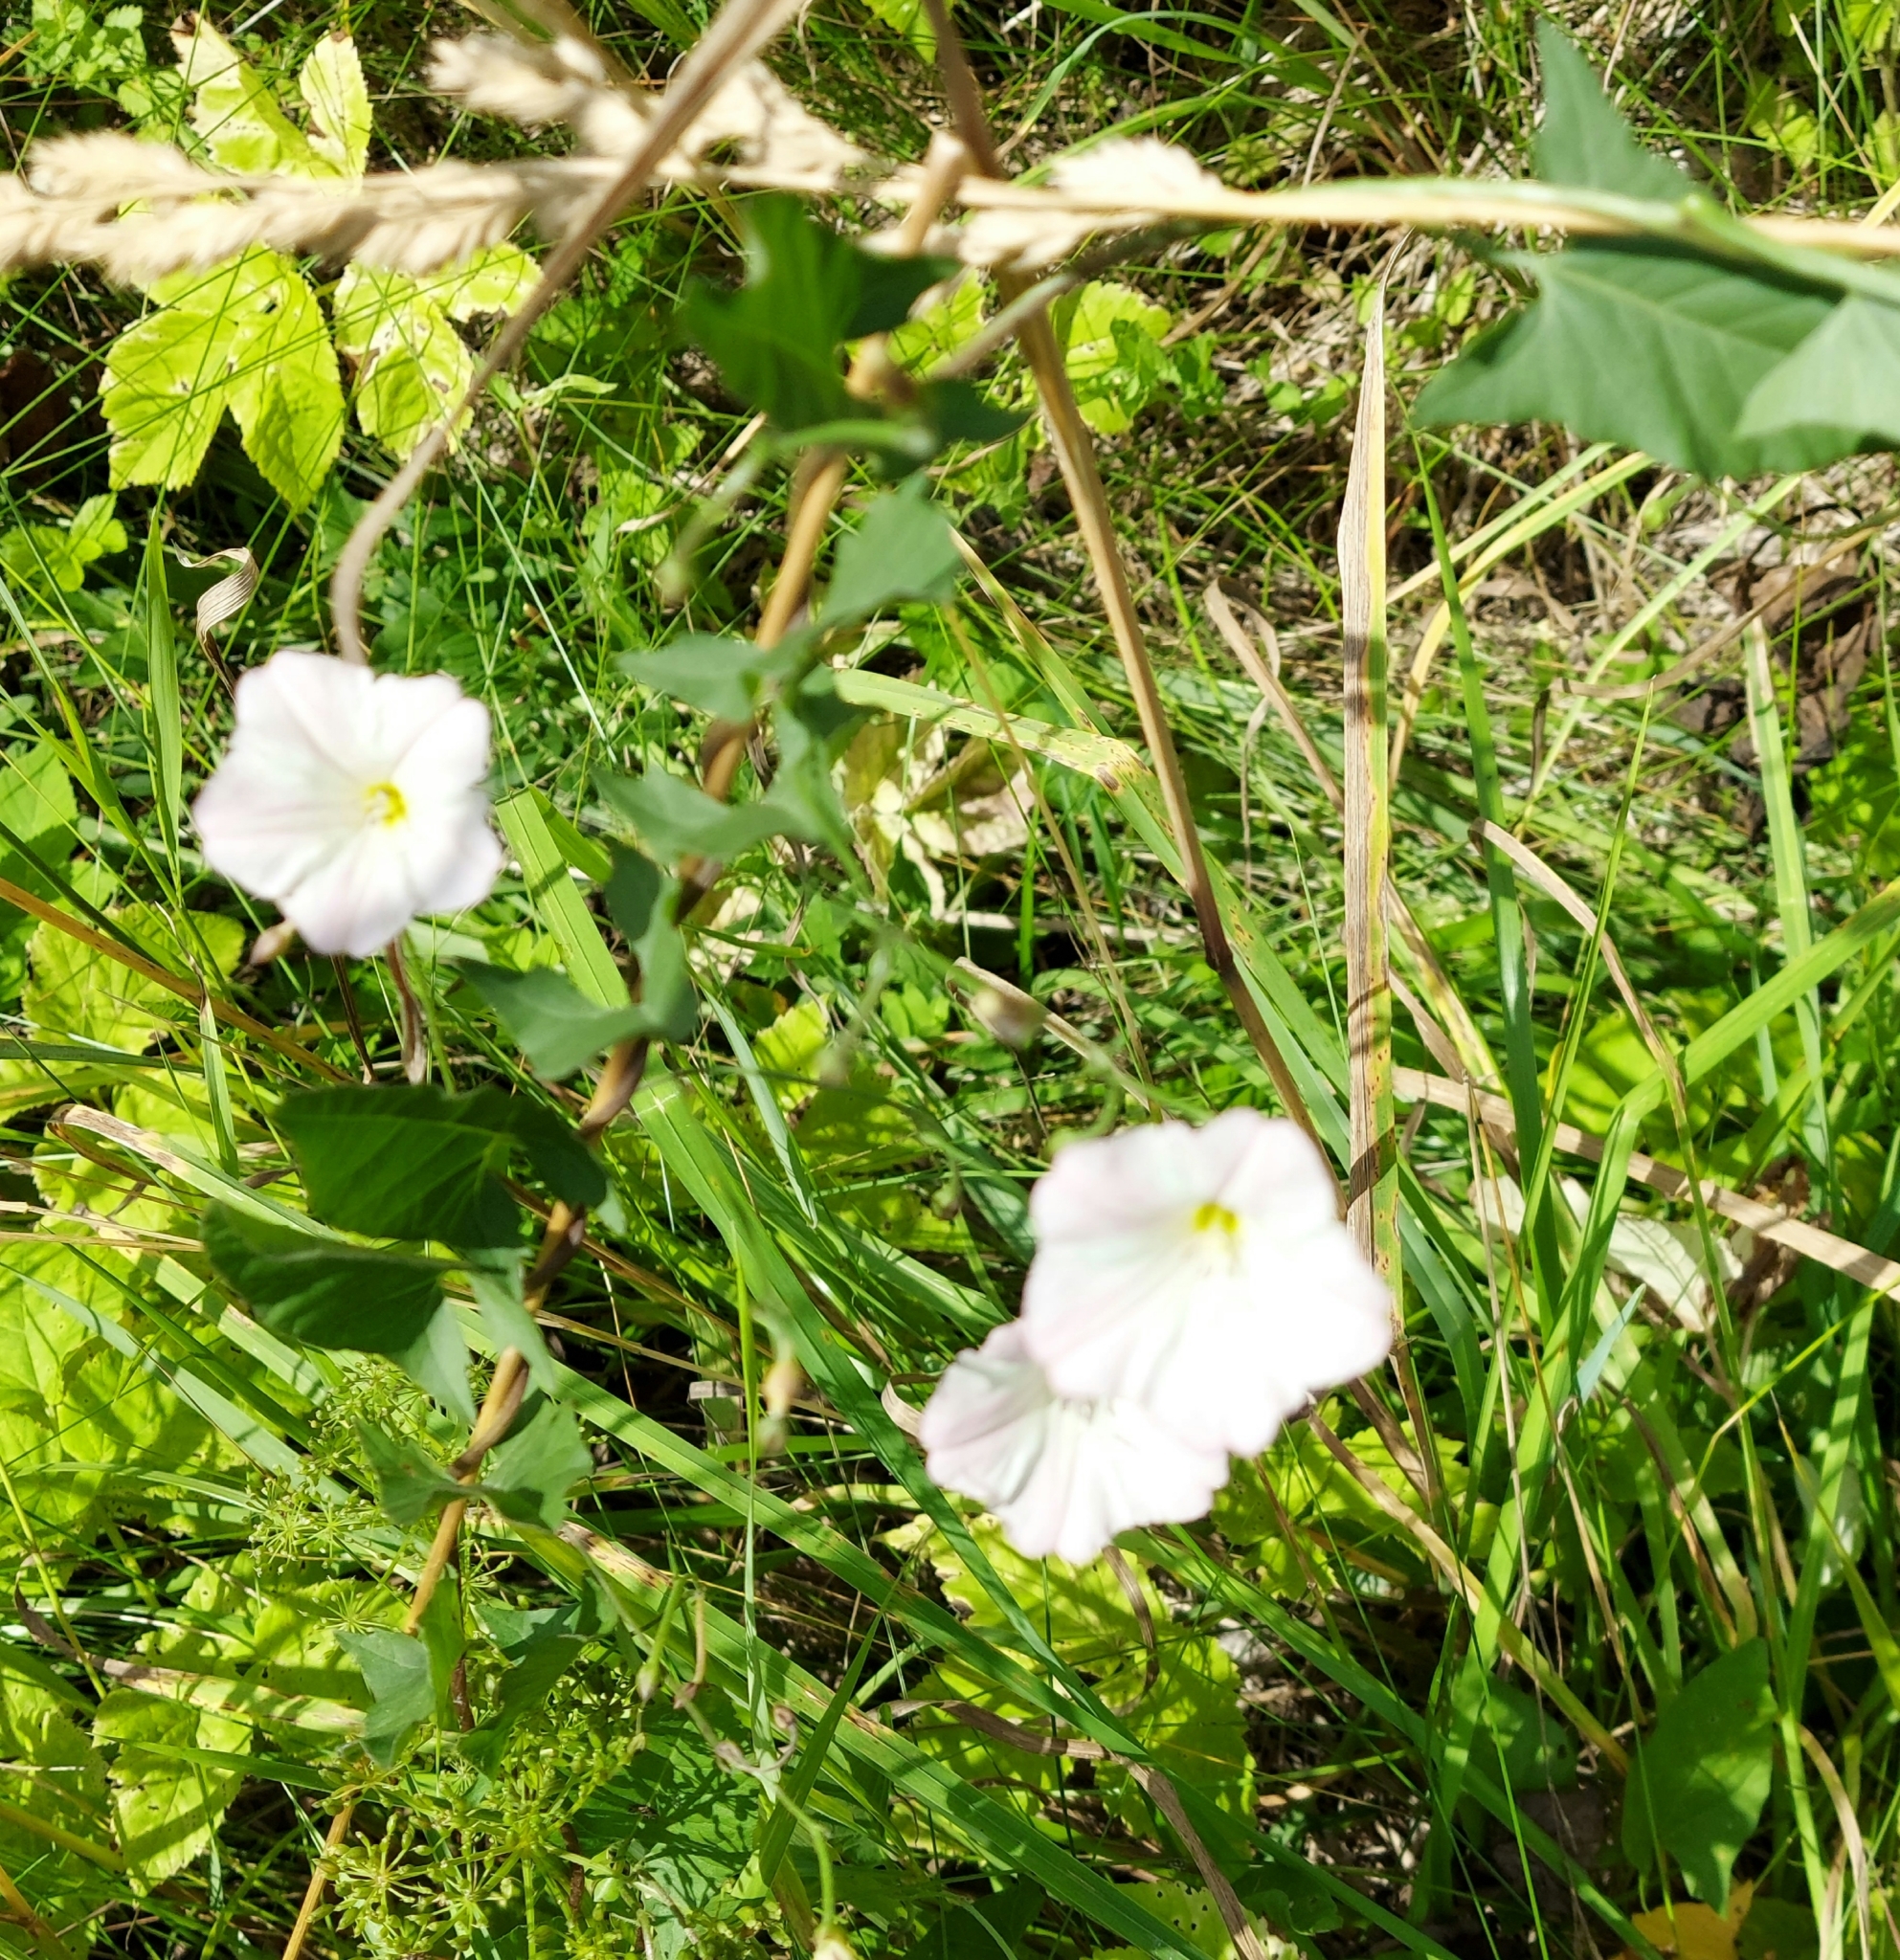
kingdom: Plantae
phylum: Tracheophyta
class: Magnoliopsida
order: Solanales
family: Convolvulaceae
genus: Convolvulus
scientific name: Convolvulus arvensis
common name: Field bindweed
